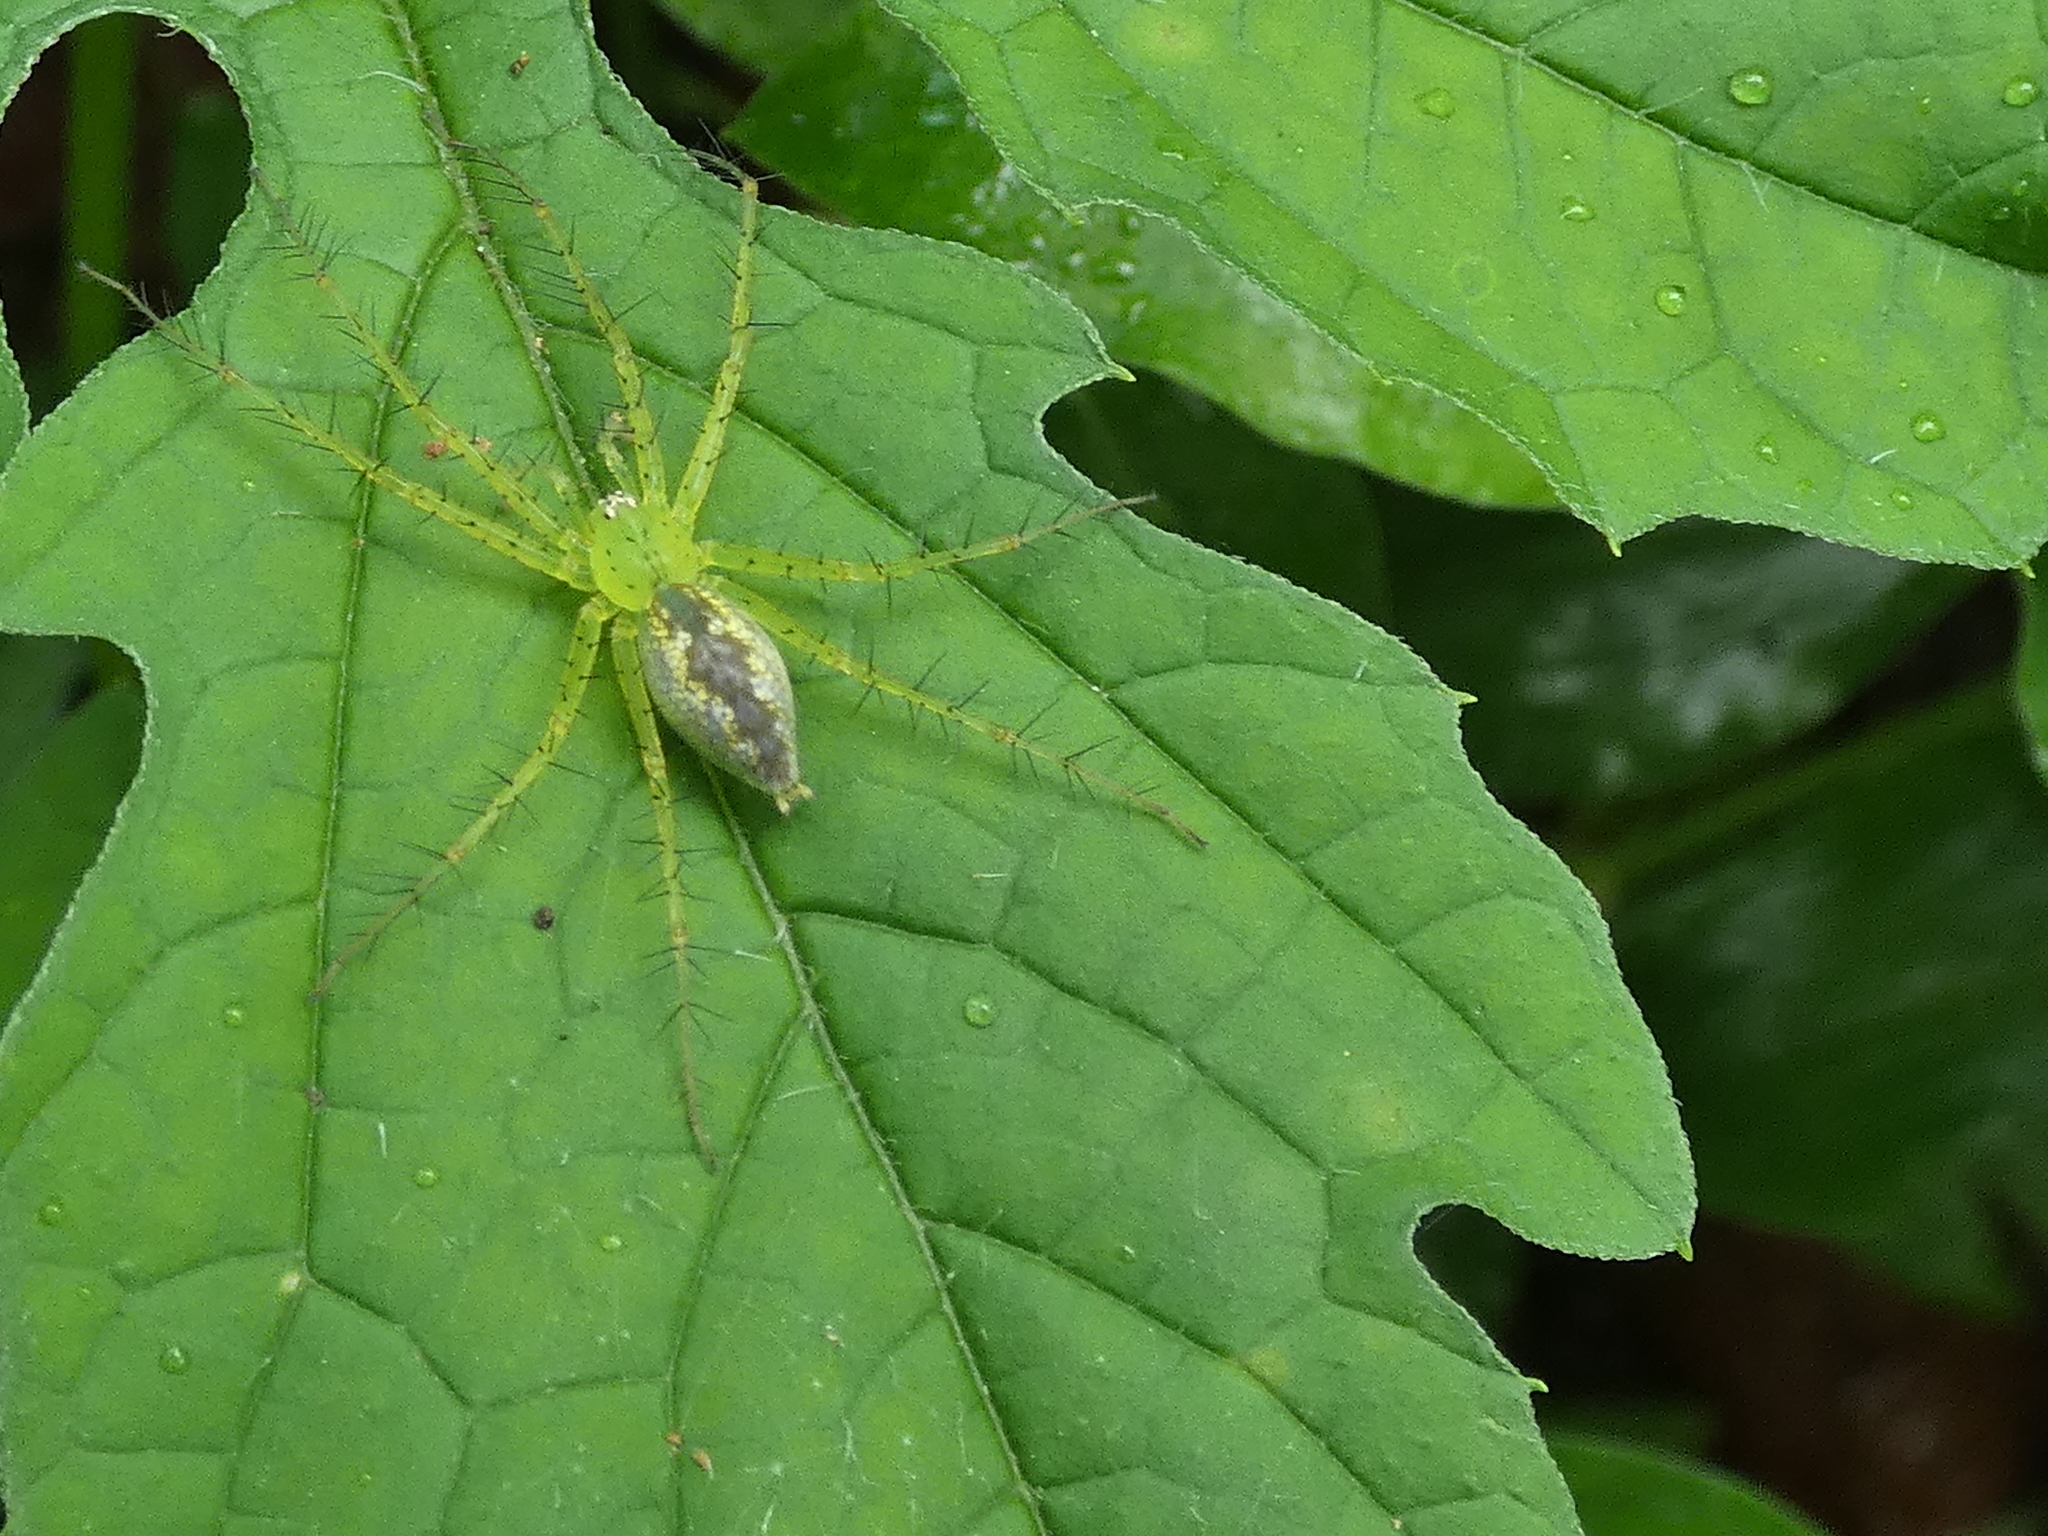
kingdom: Animalia
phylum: Arthropoda
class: Arachnida
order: Araneae
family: Pisauridae
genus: Architis
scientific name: Architis spinipes
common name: Nursery web spiders
